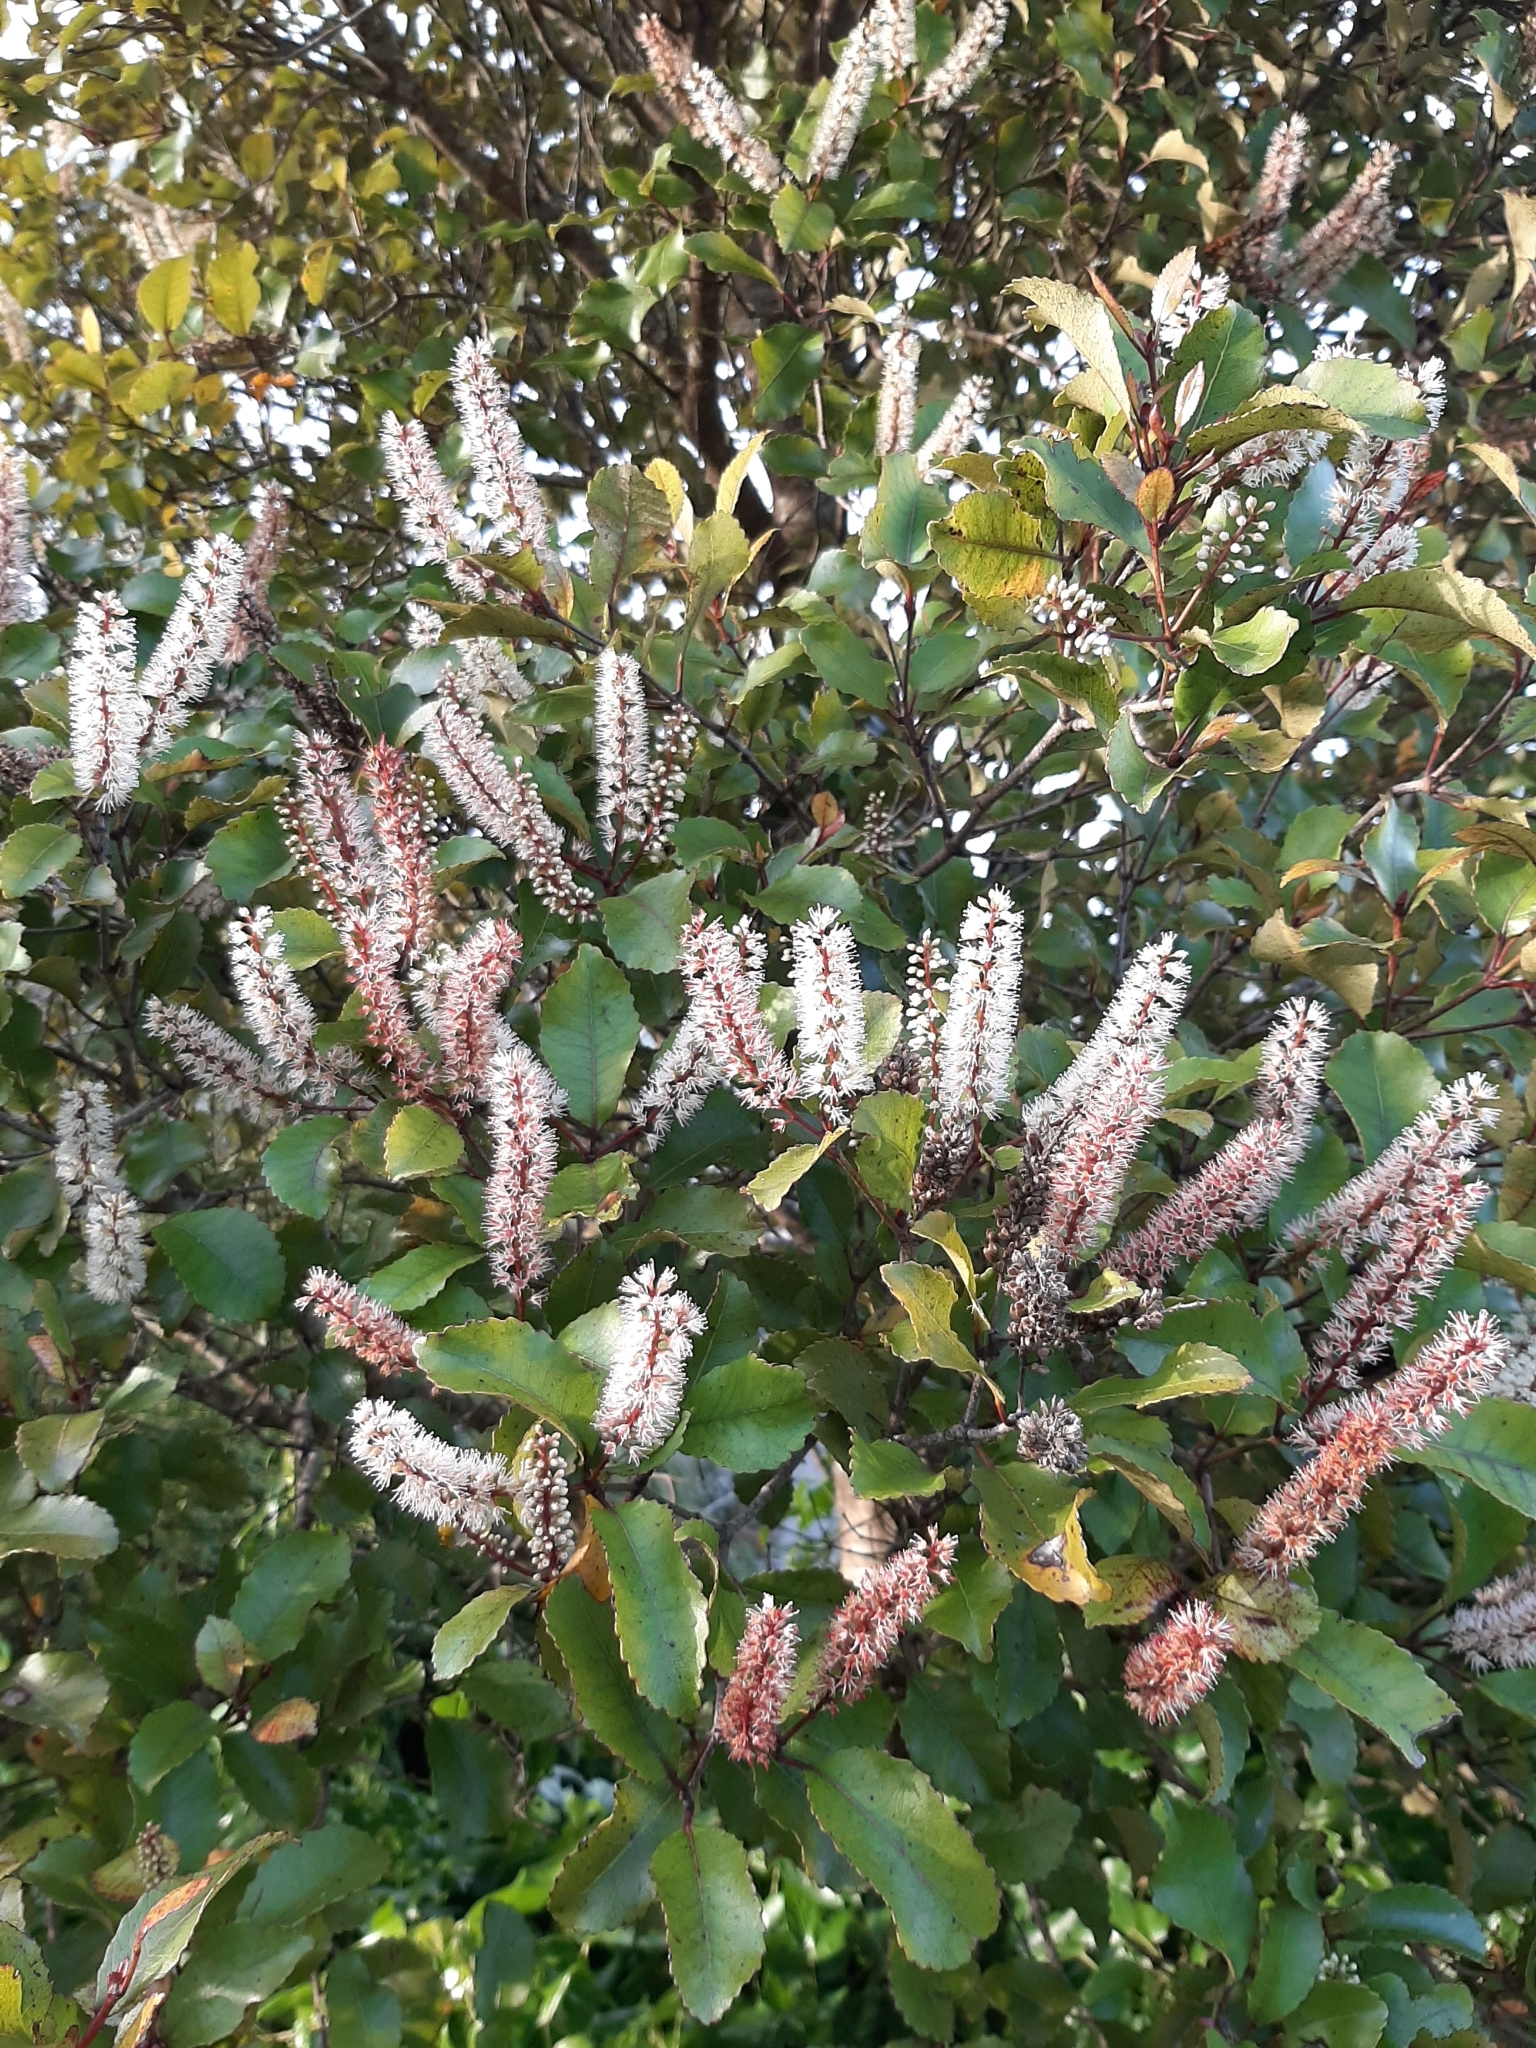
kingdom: Plantae
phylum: Tracheophyta
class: Magnoliopsida
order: Oxalidales
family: Cunoniaceae
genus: Pterophylla
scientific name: Pterophylla racemosa
